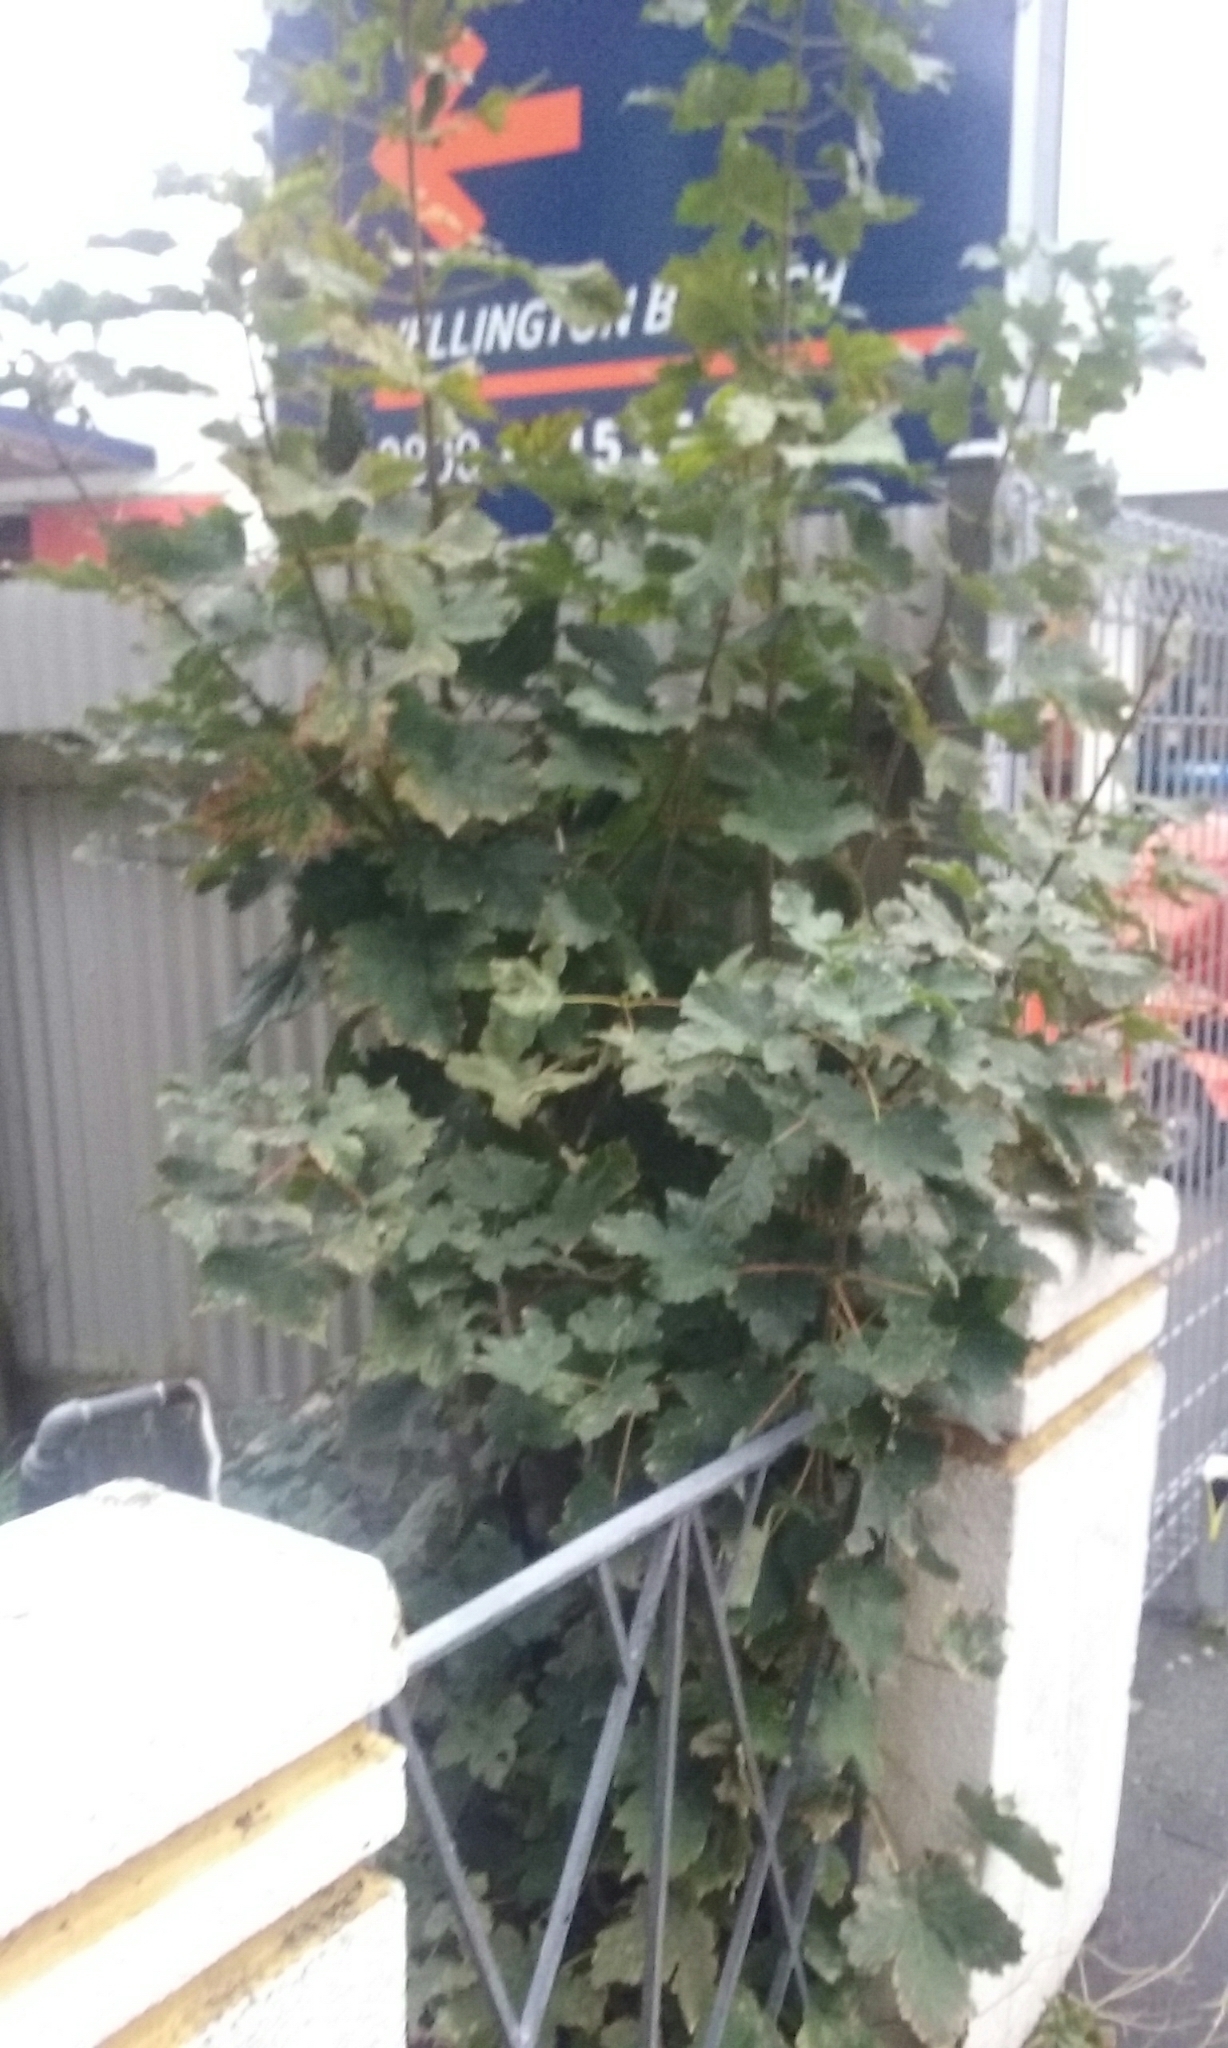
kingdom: Plantae
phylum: Tracheophyta
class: Magnoliopsida
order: Sapindales
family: Sapindaceae
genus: Acer
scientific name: Acer pseudoplatanus
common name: Sycamore
